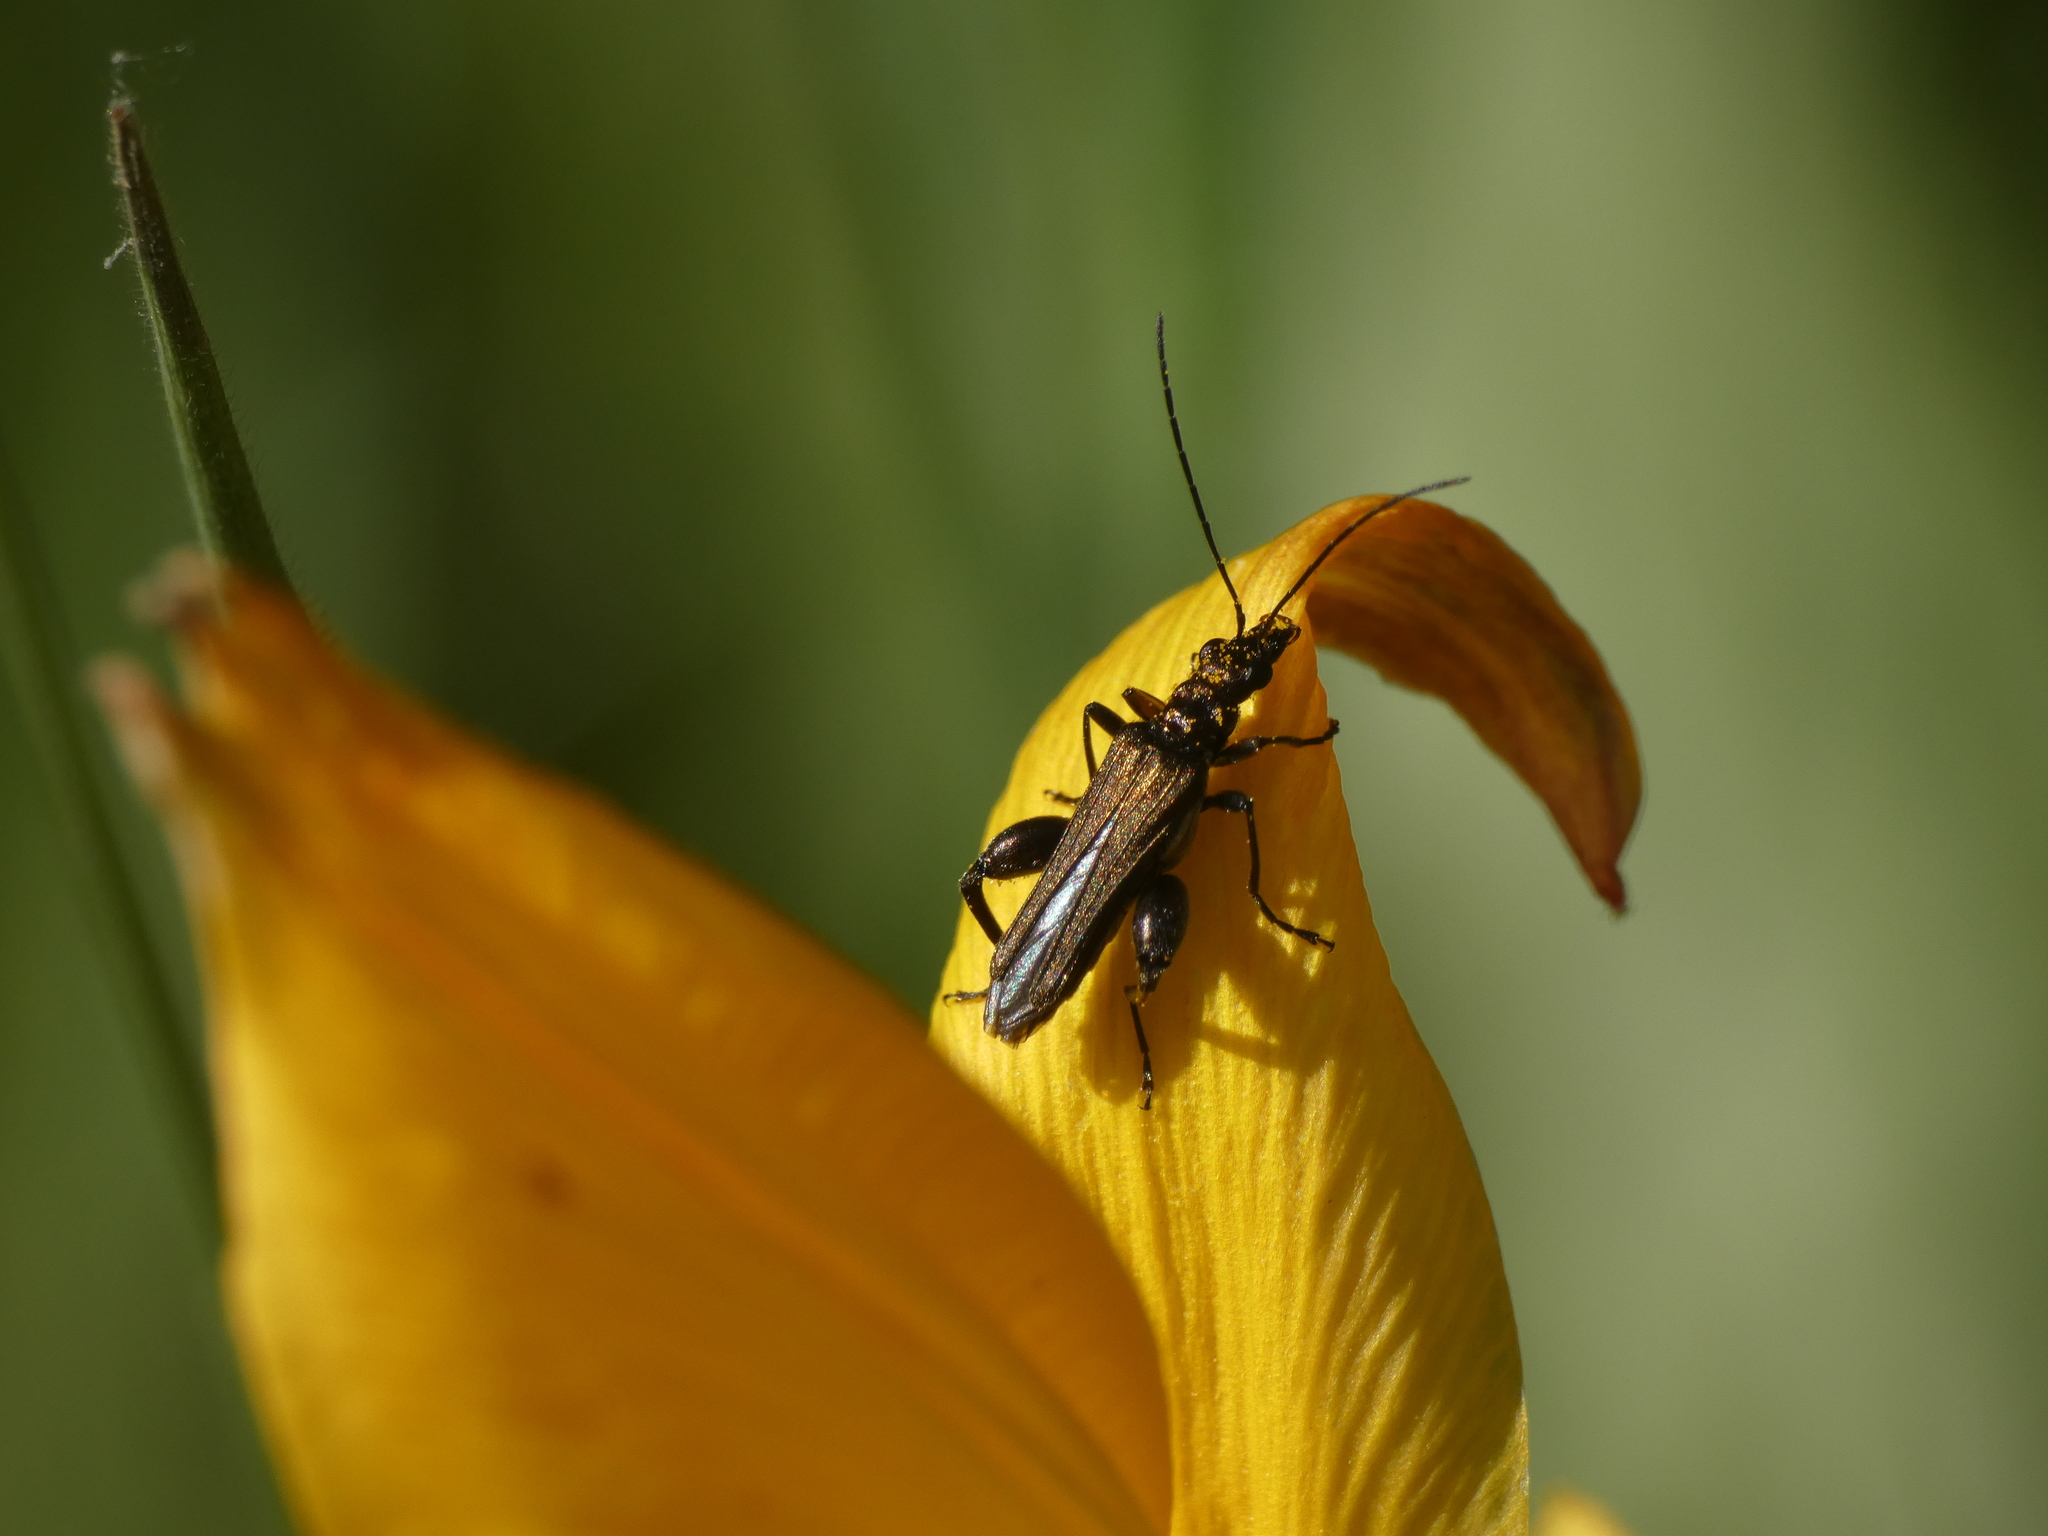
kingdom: Animalia
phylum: Arthropoda
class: Insecta
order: Coleoptera
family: Oedemeridae
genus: Oedemera
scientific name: Oedemera flavipes
